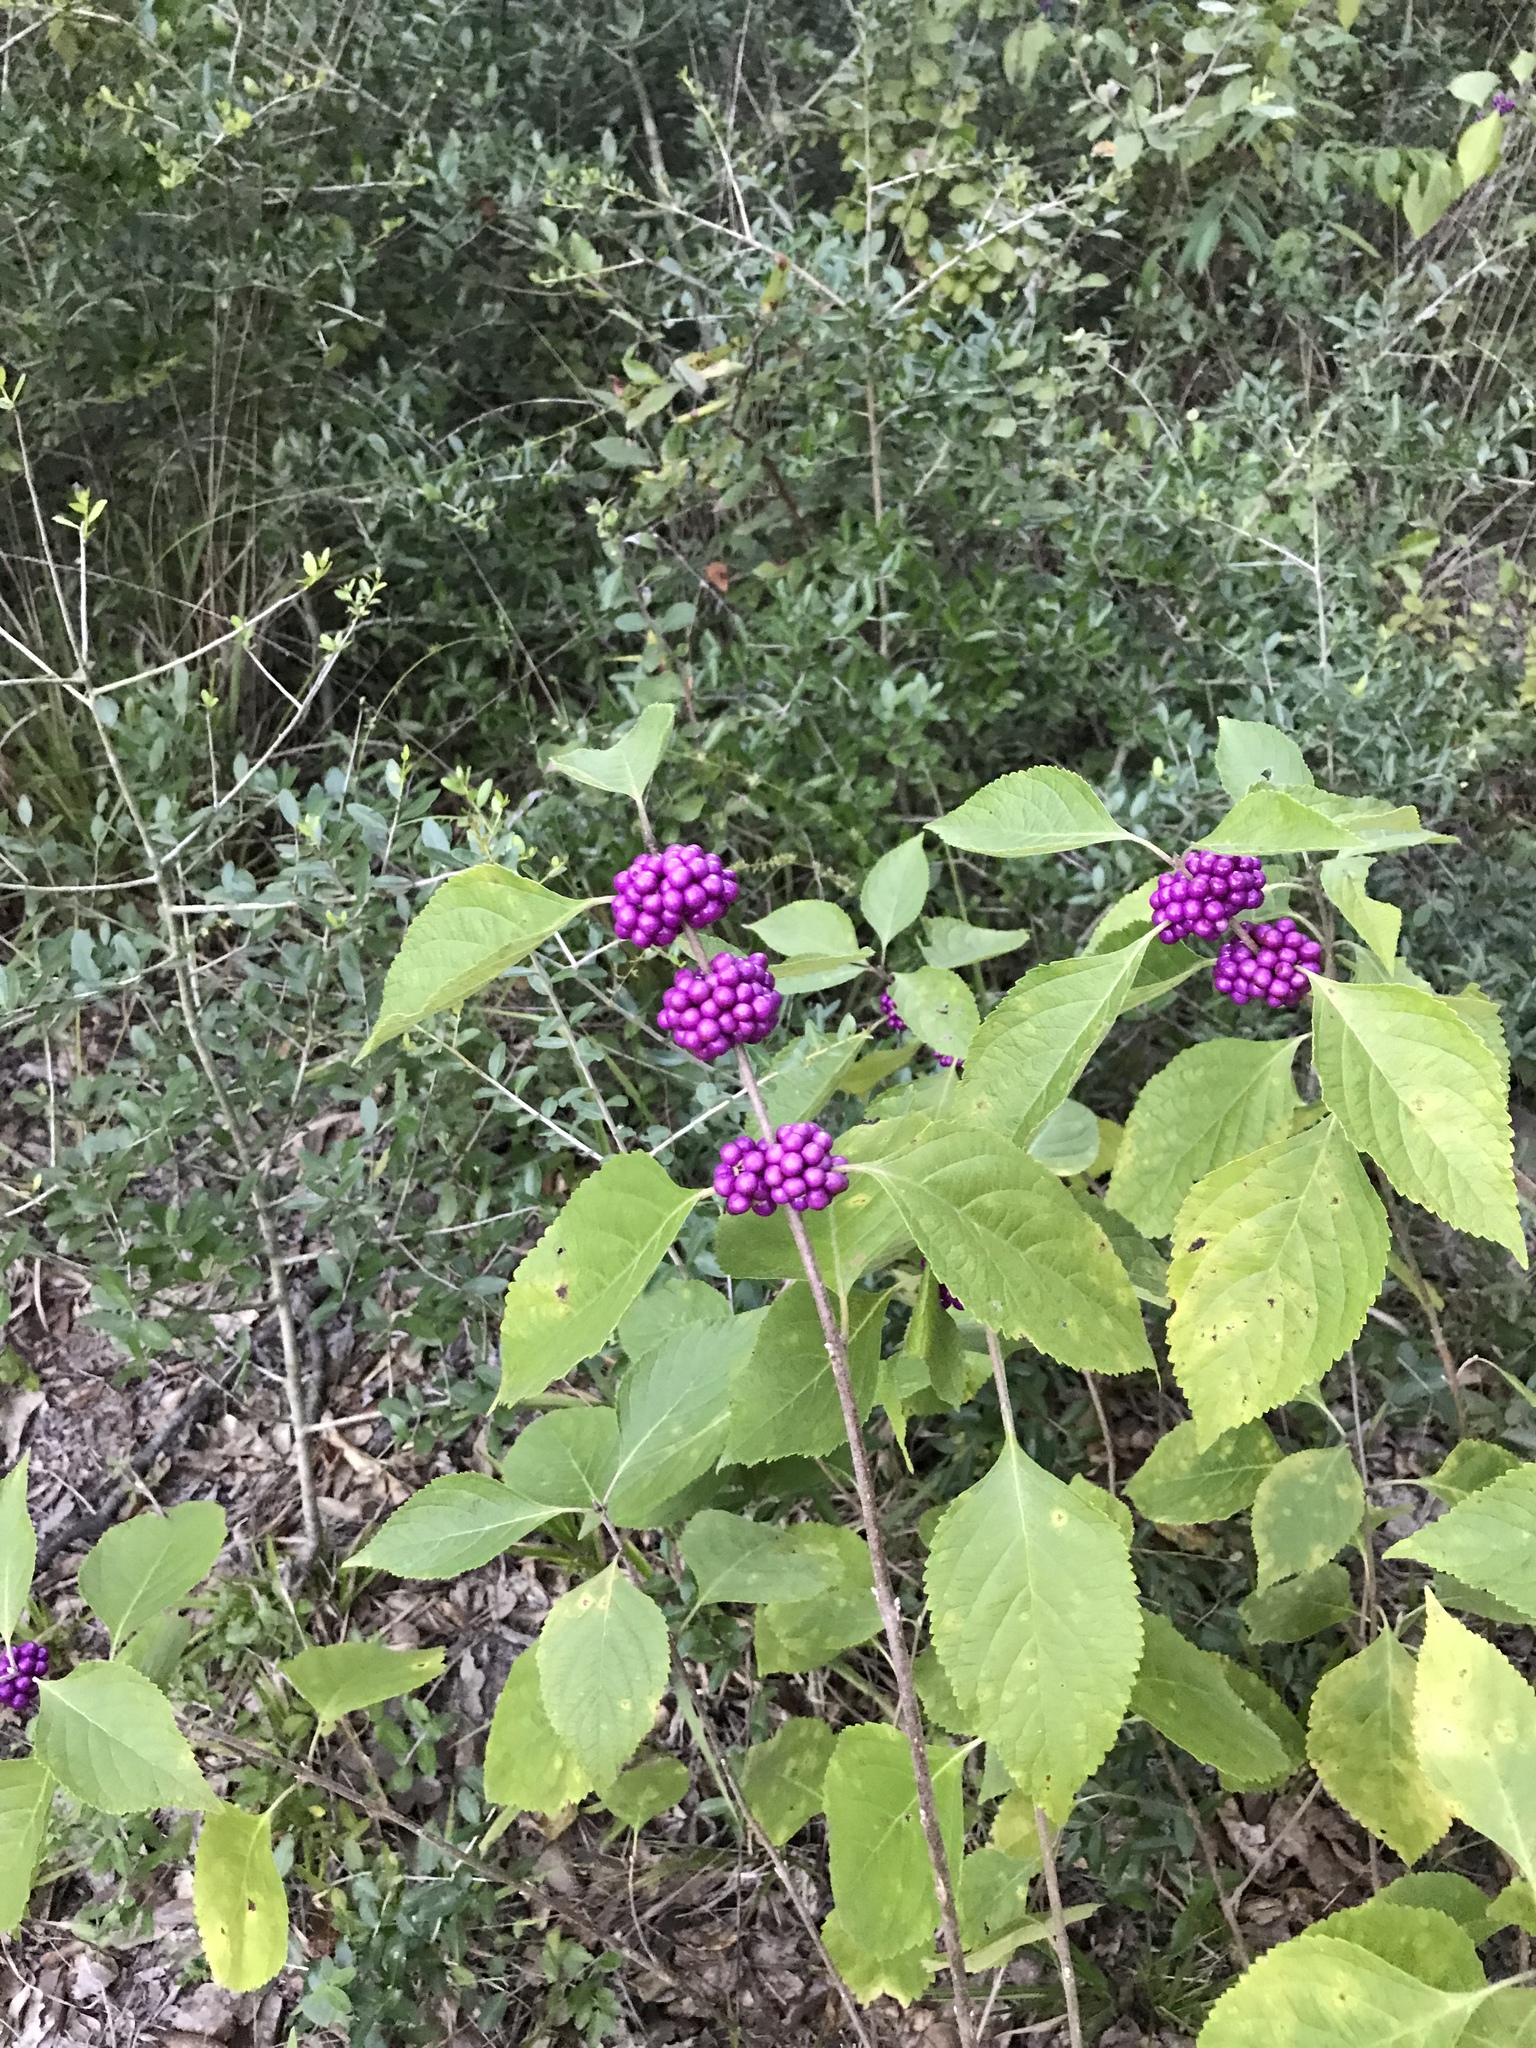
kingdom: Plantae
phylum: Tracheophyta
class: Magnoliopsida
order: Lamiales
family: Lamiaceae
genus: Callicarpa
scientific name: Callicarpa americana
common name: American beautyberry
